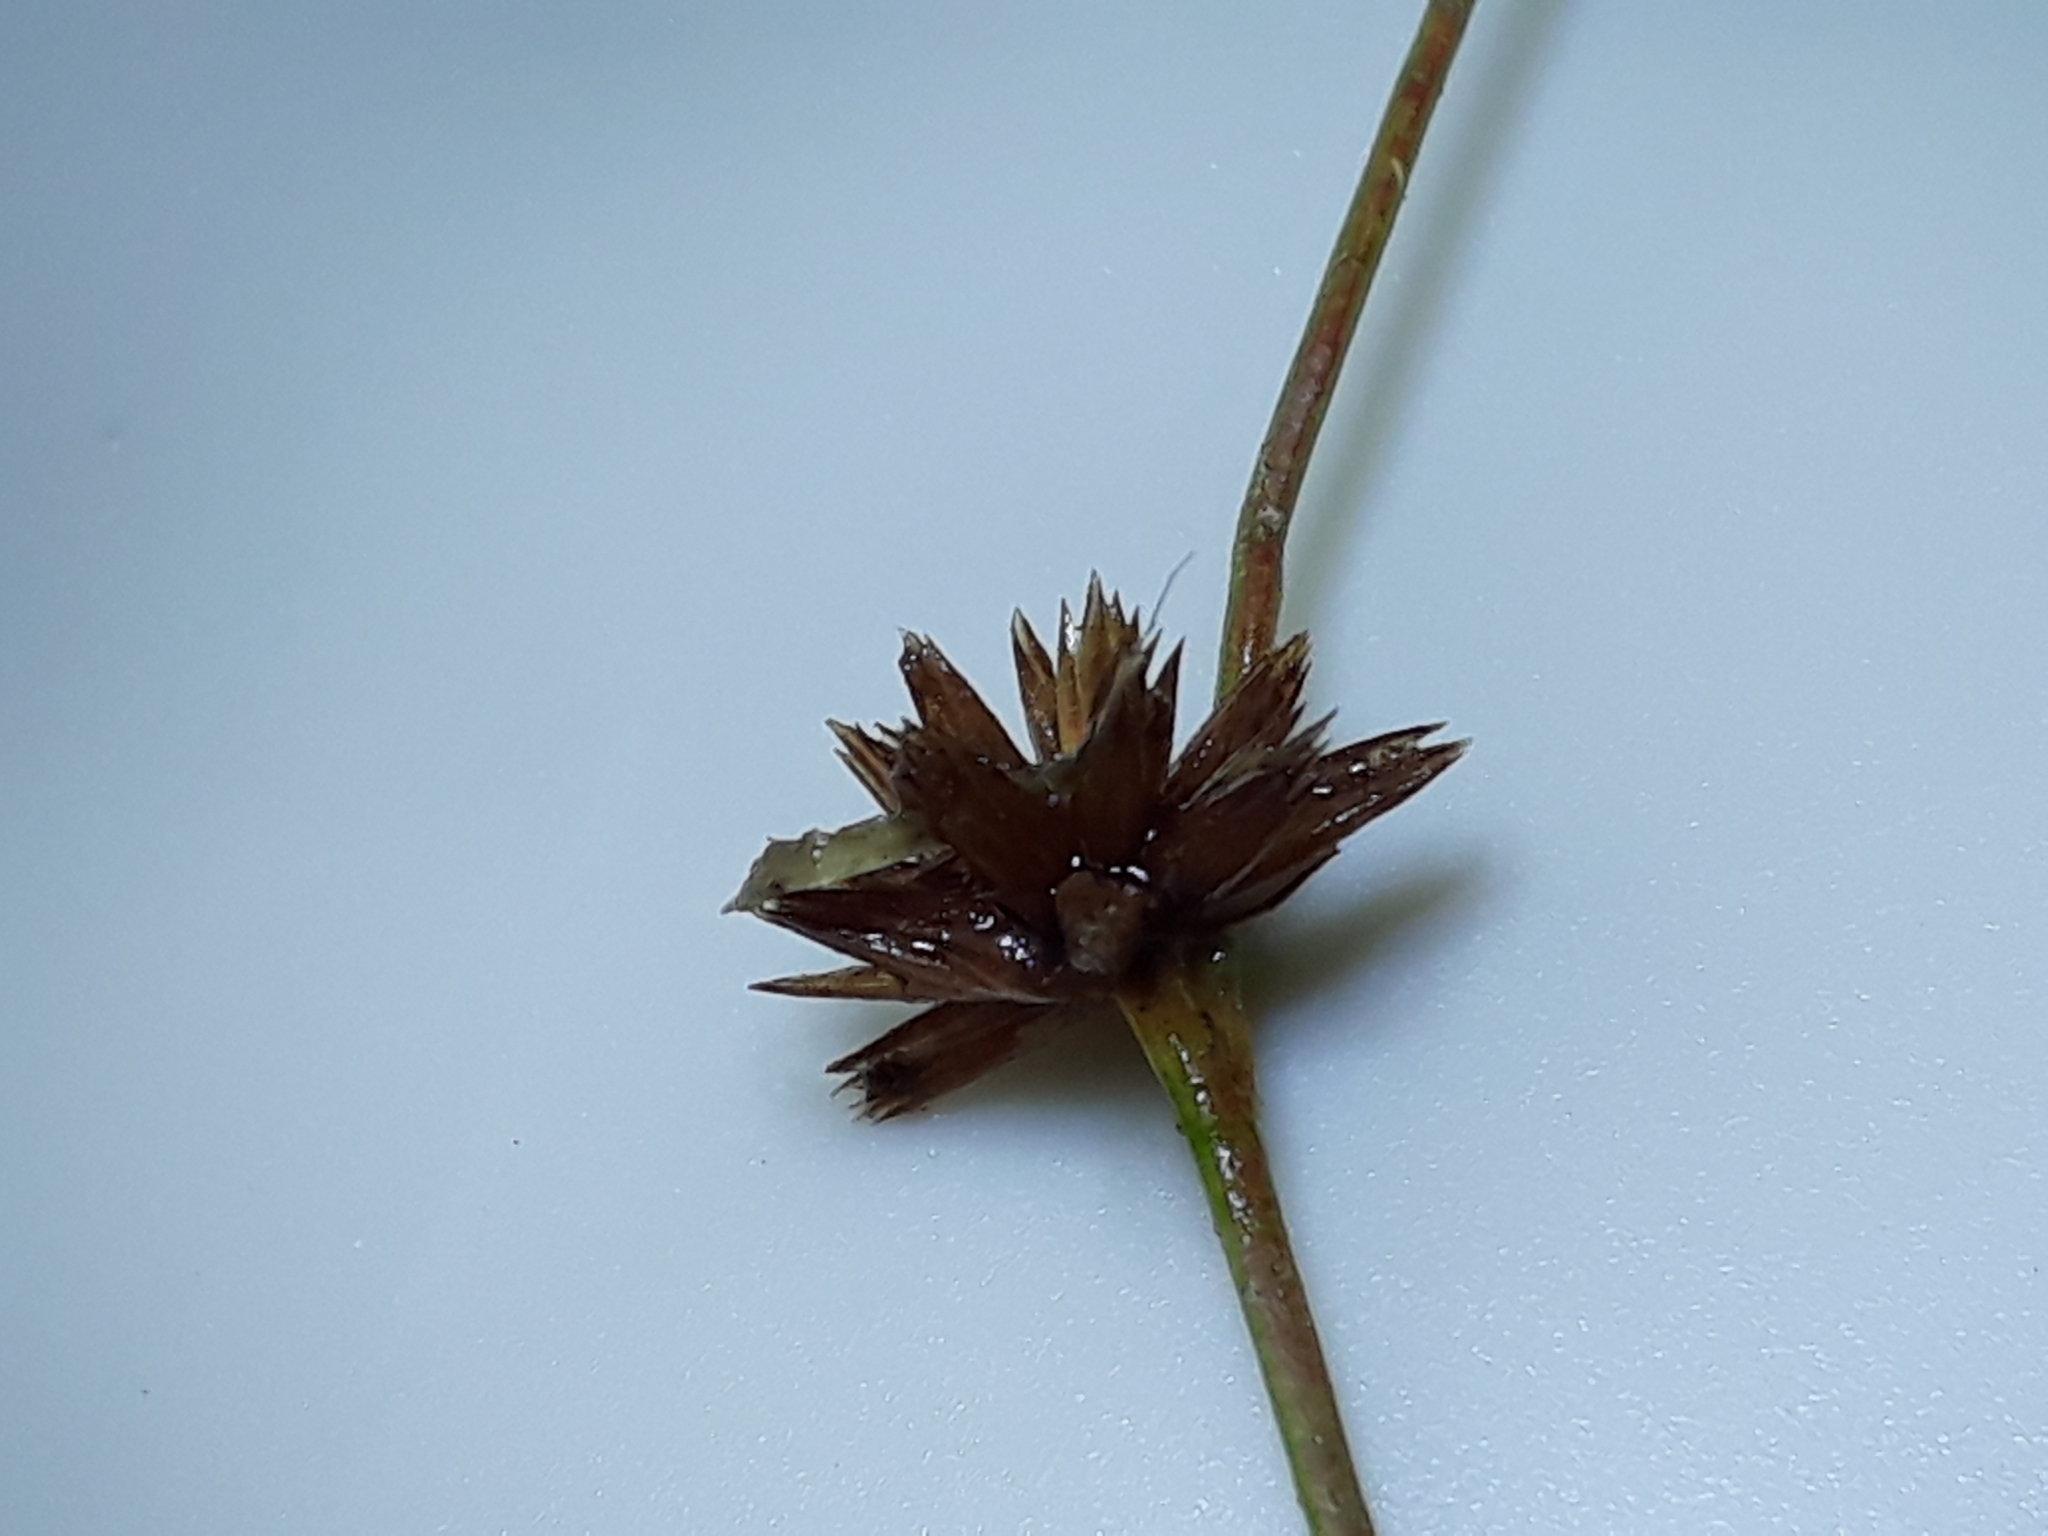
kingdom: Plantae
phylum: Tracheophyta
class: Liliopsida
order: Poales
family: Juncaceae
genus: Juncus
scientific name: Juncus prismatocarpus
